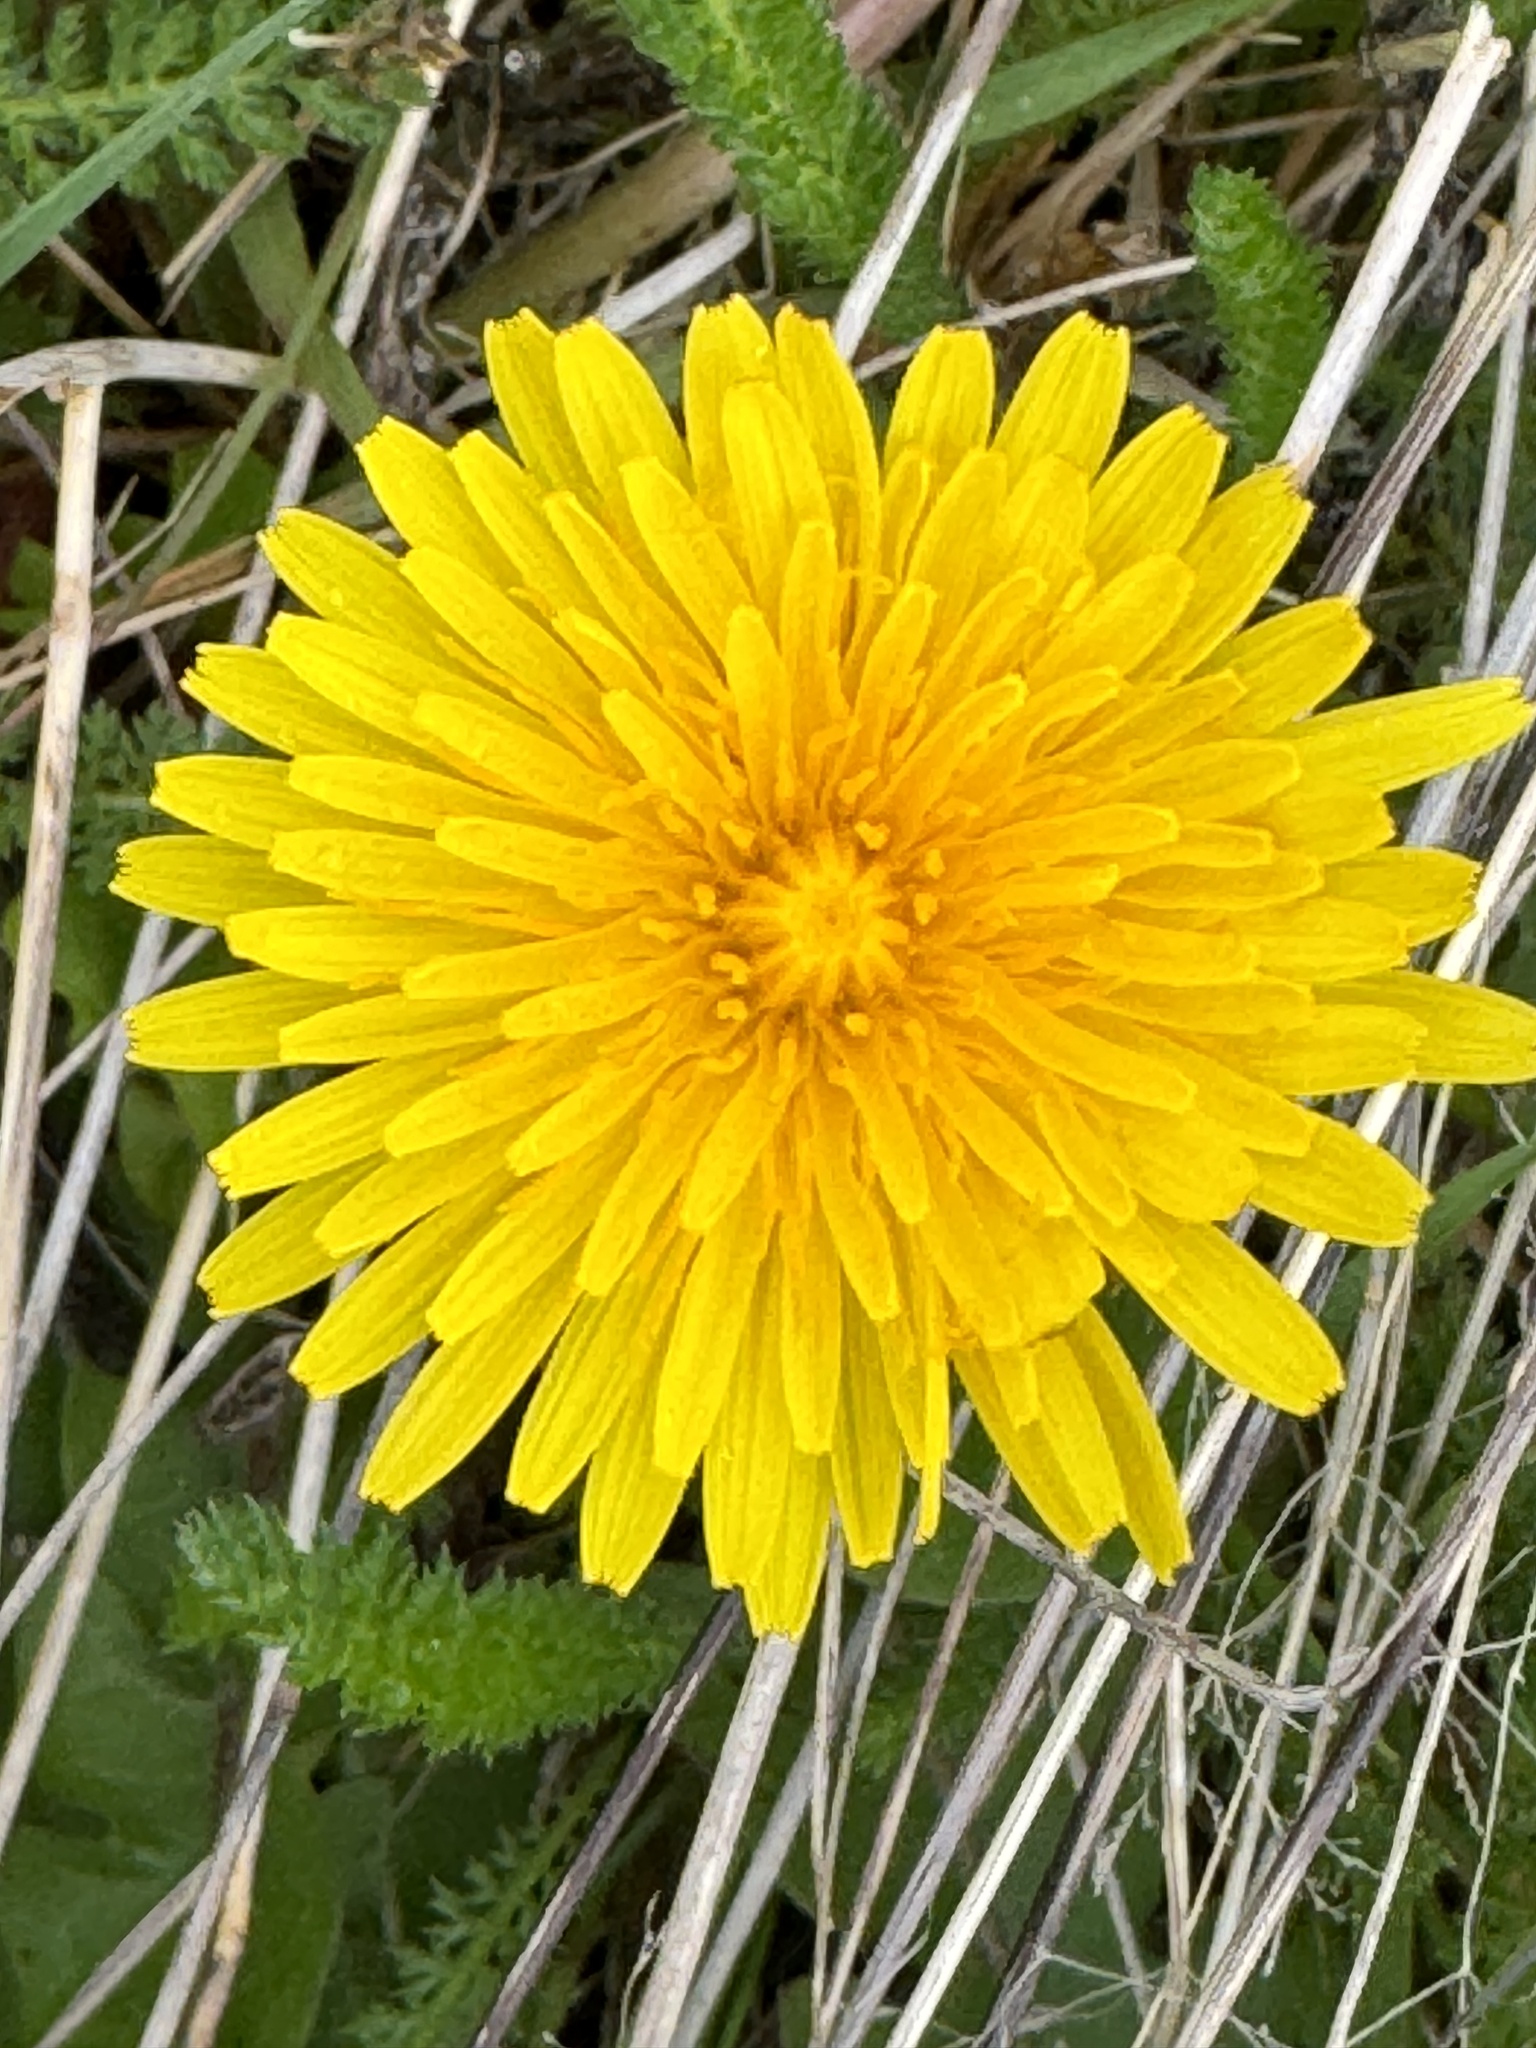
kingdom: Plantae
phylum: Tracheophyta
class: Magnoliopsida
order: Asterales
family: Asteraceae
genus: Taraxacum
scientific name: Taraxacum officinale
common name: Common dandelion
